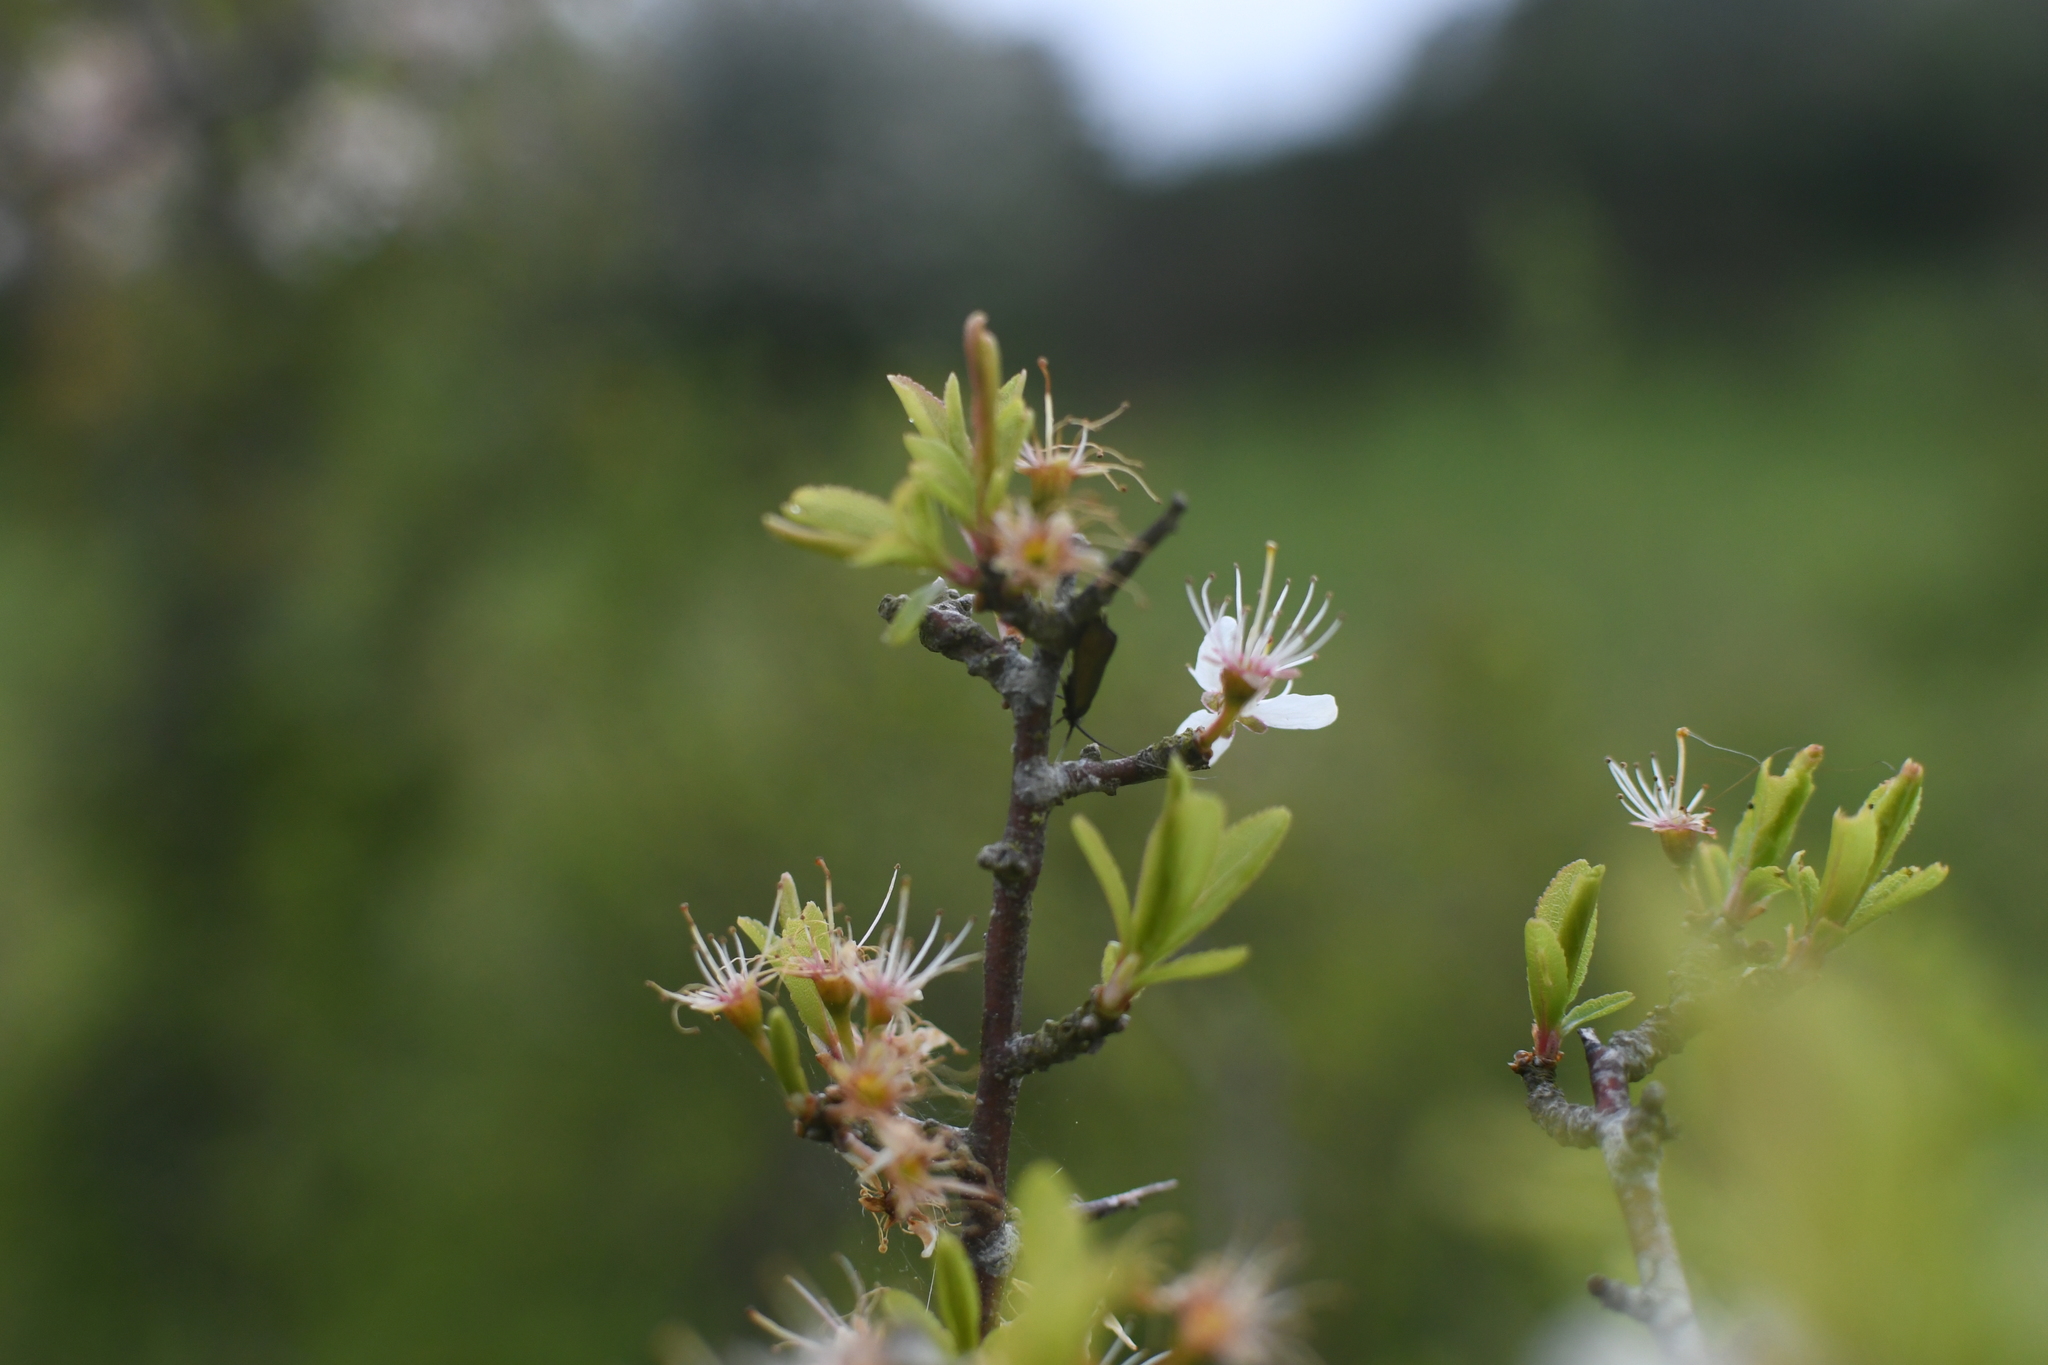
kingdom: Plantae
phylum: Tracheophyta
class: Magnoliopsida
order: Rosales
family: Rosaceae
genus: Prunus
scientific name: Prunus spinosa
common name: Blackthorn
